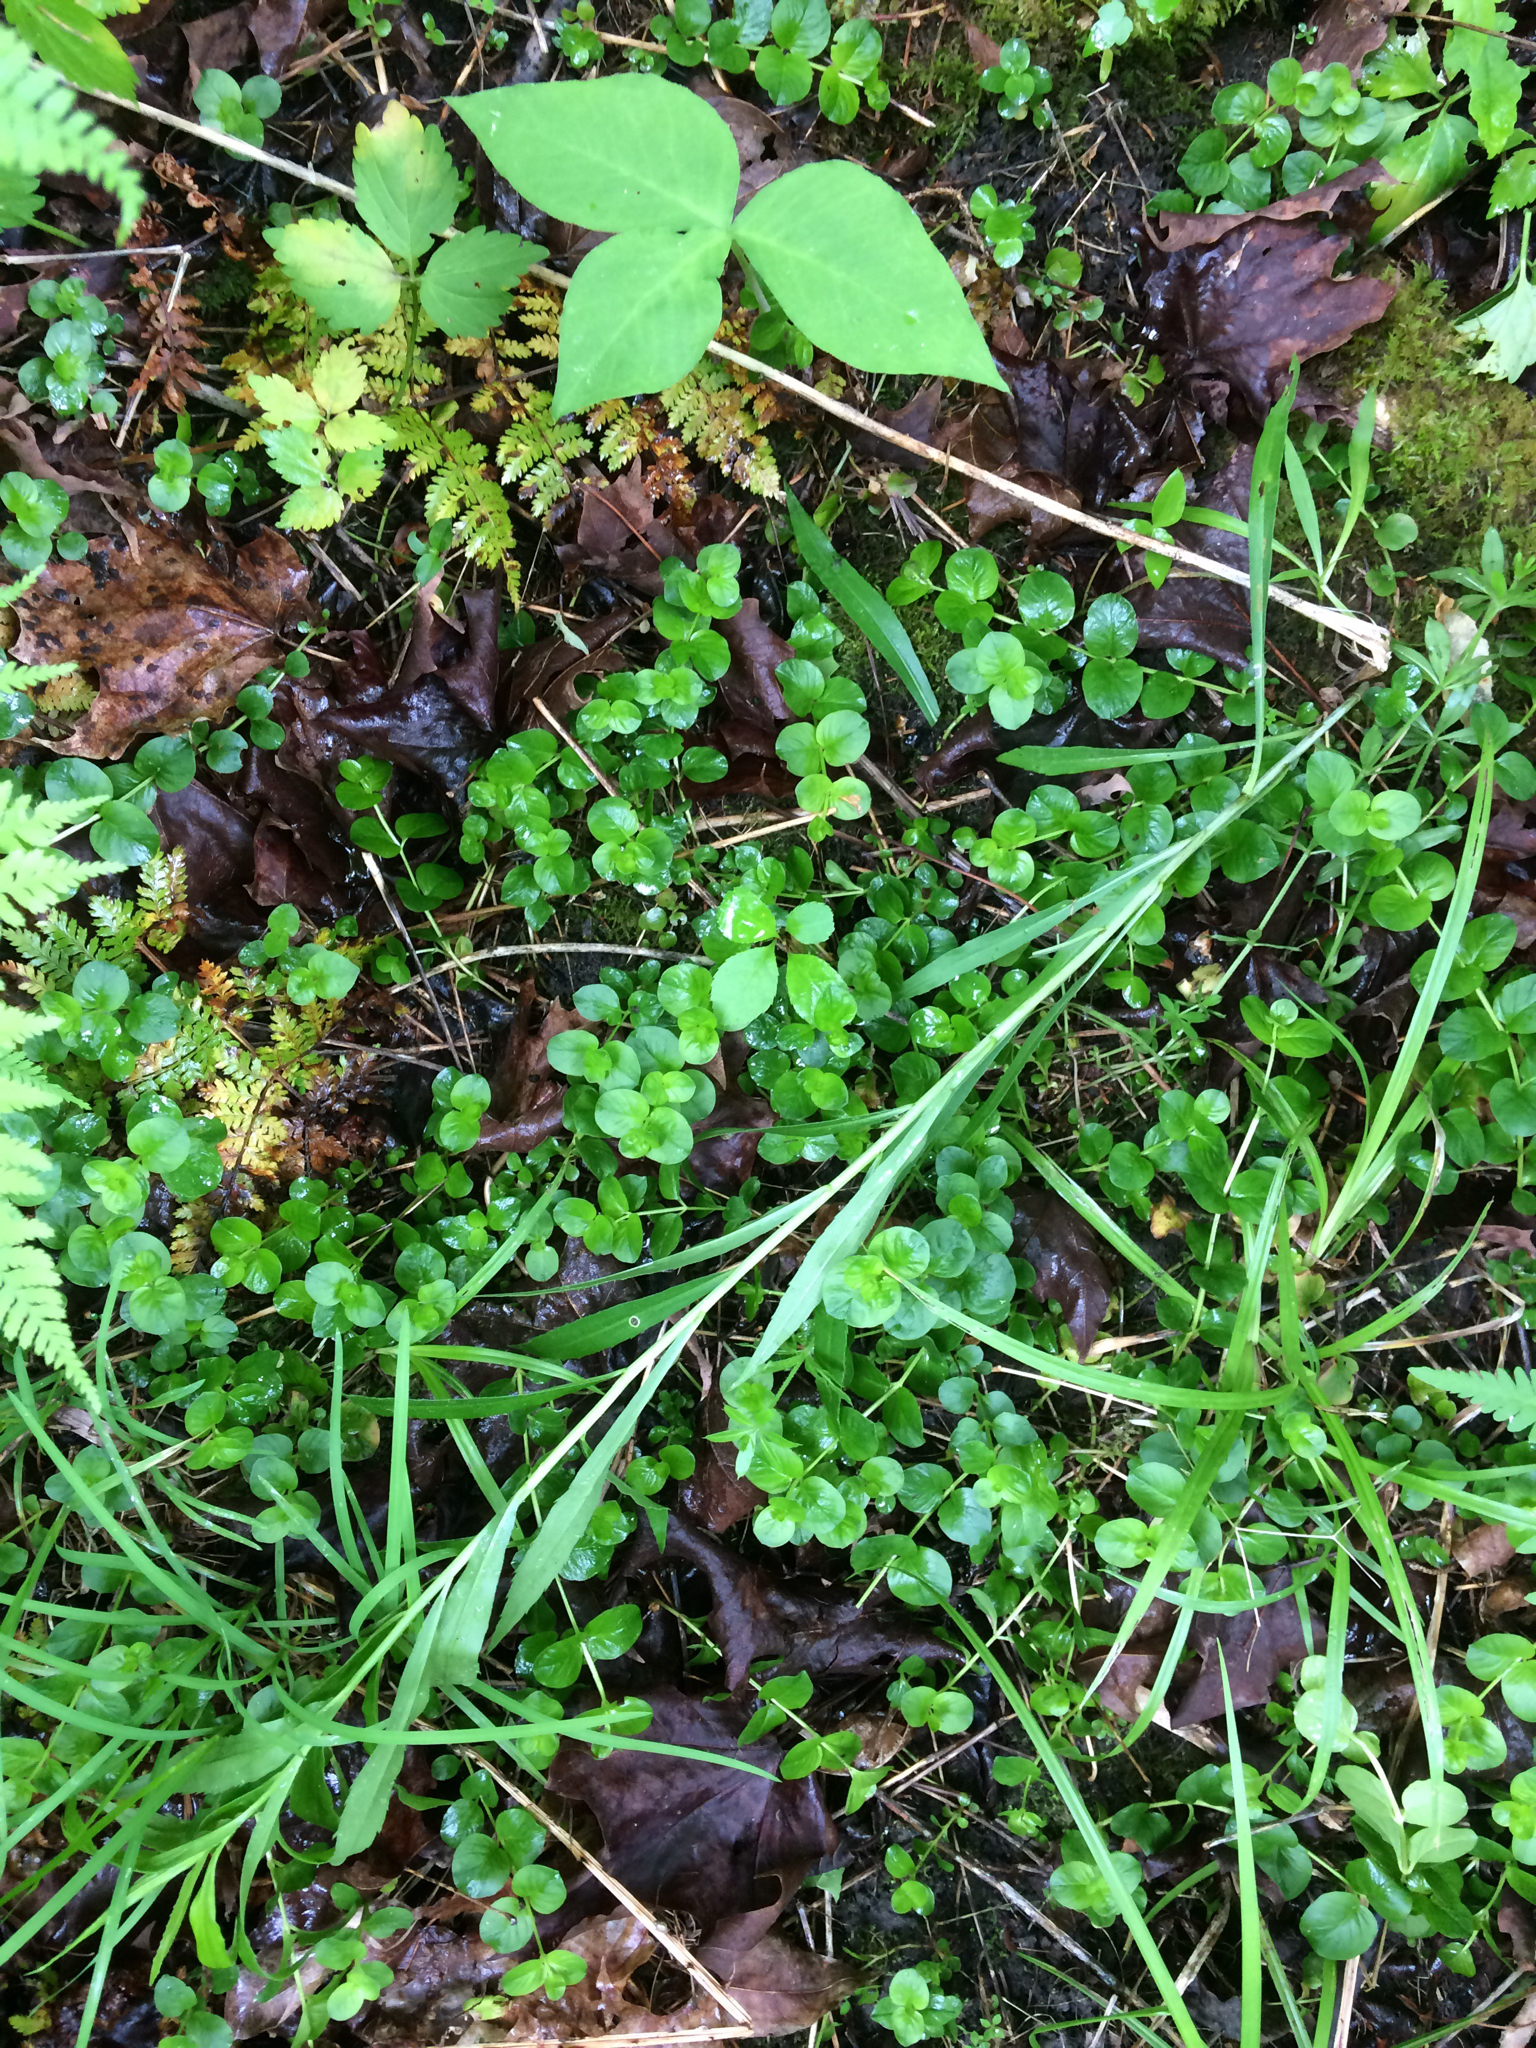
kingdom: Plantae
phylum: Tracheophyta
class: Magnoliopsida
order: Ericales
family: Primulaceae
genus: Lysimachia
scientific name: Lysimachia nummularia
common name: Moneywort
